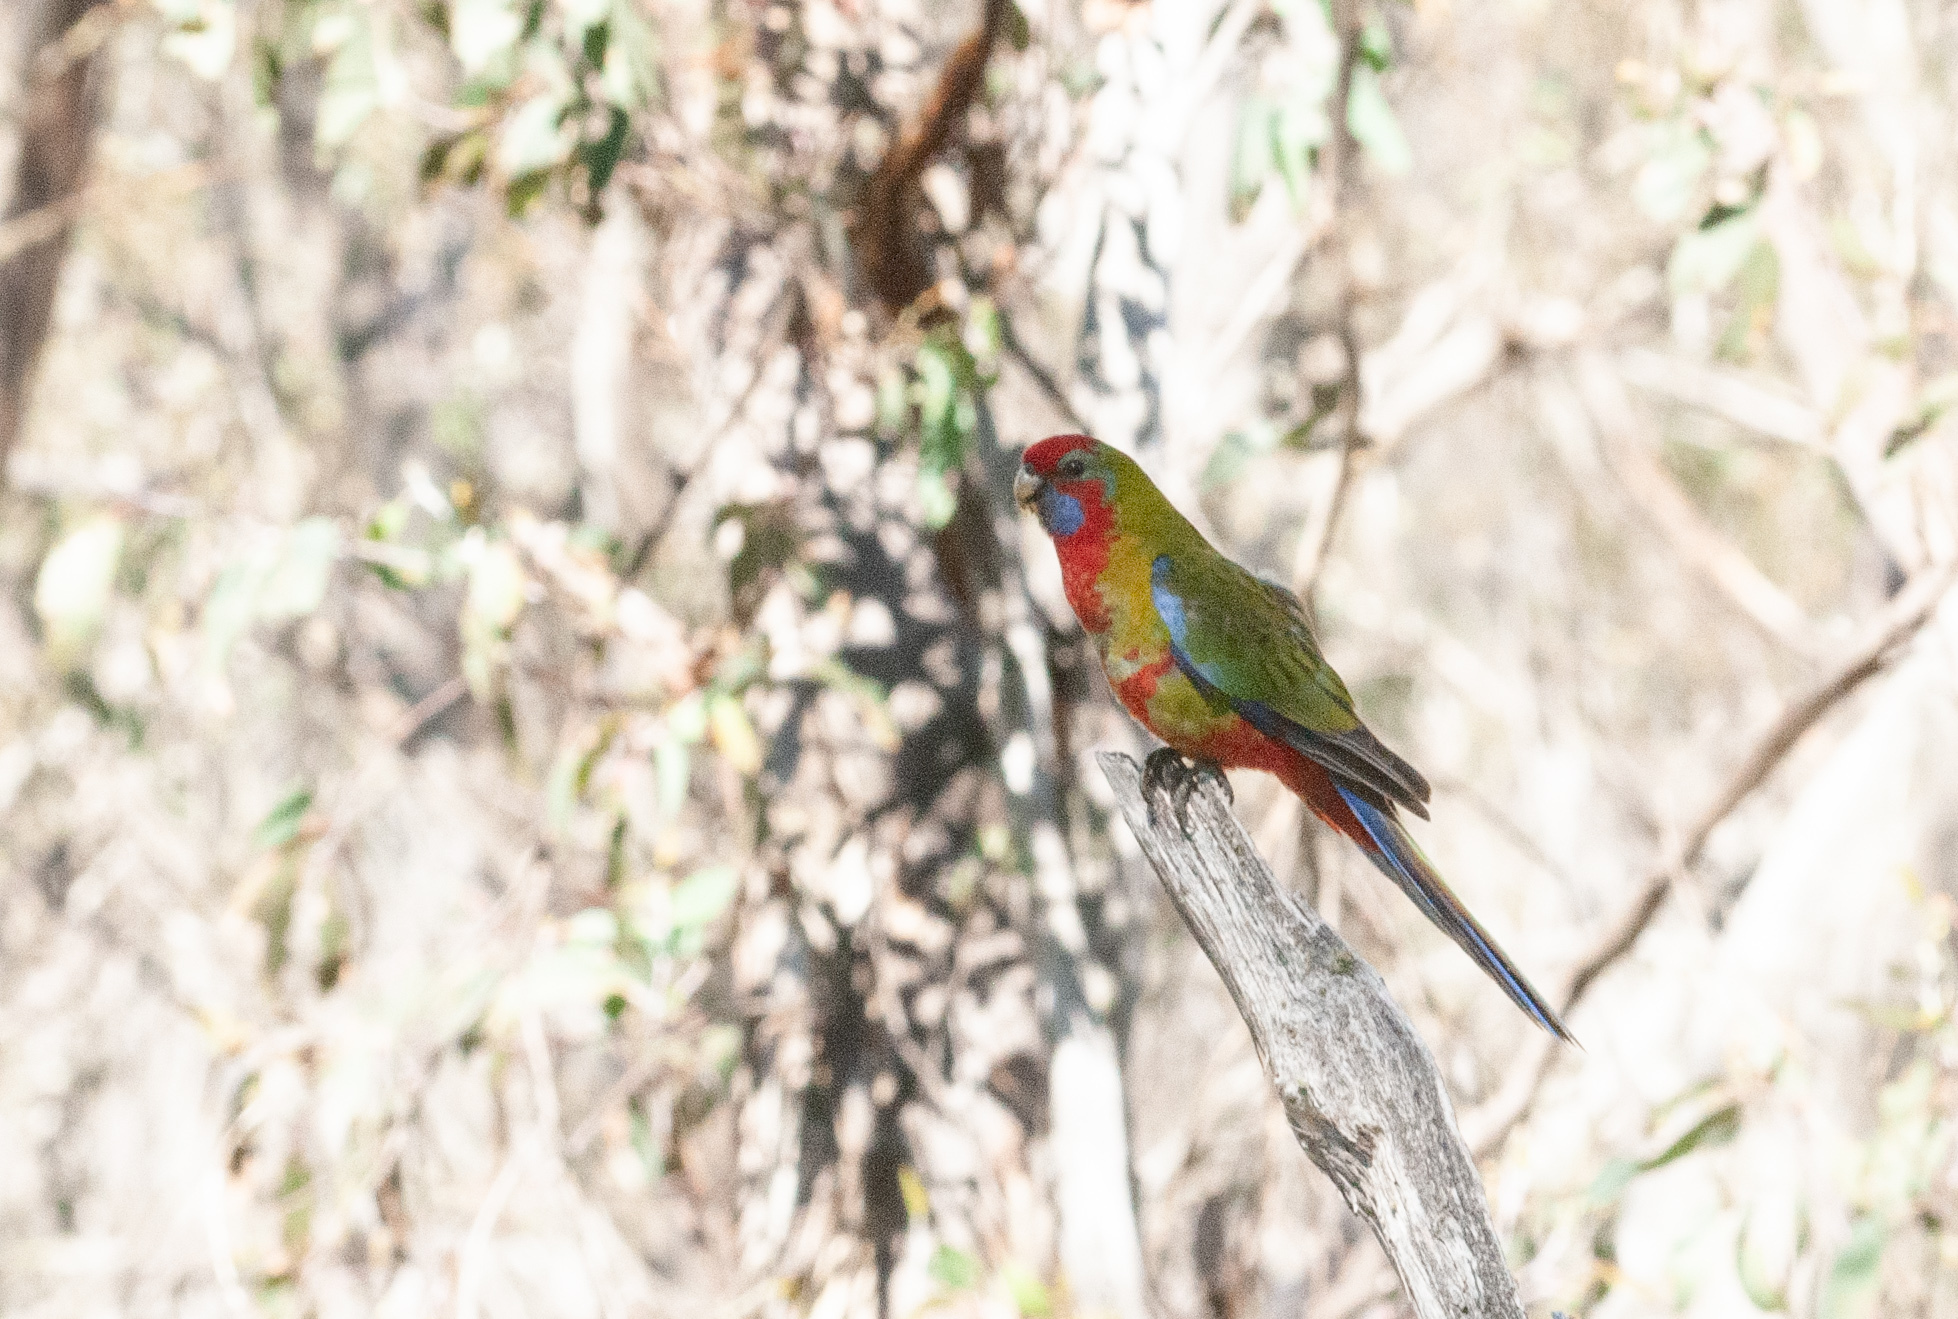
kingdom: Animalia
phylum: Chordata
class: Aves
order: Psittaciformes
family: Psittacidae
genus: Platycercus
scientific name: Platycercus elegans
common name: Crimson rosella
